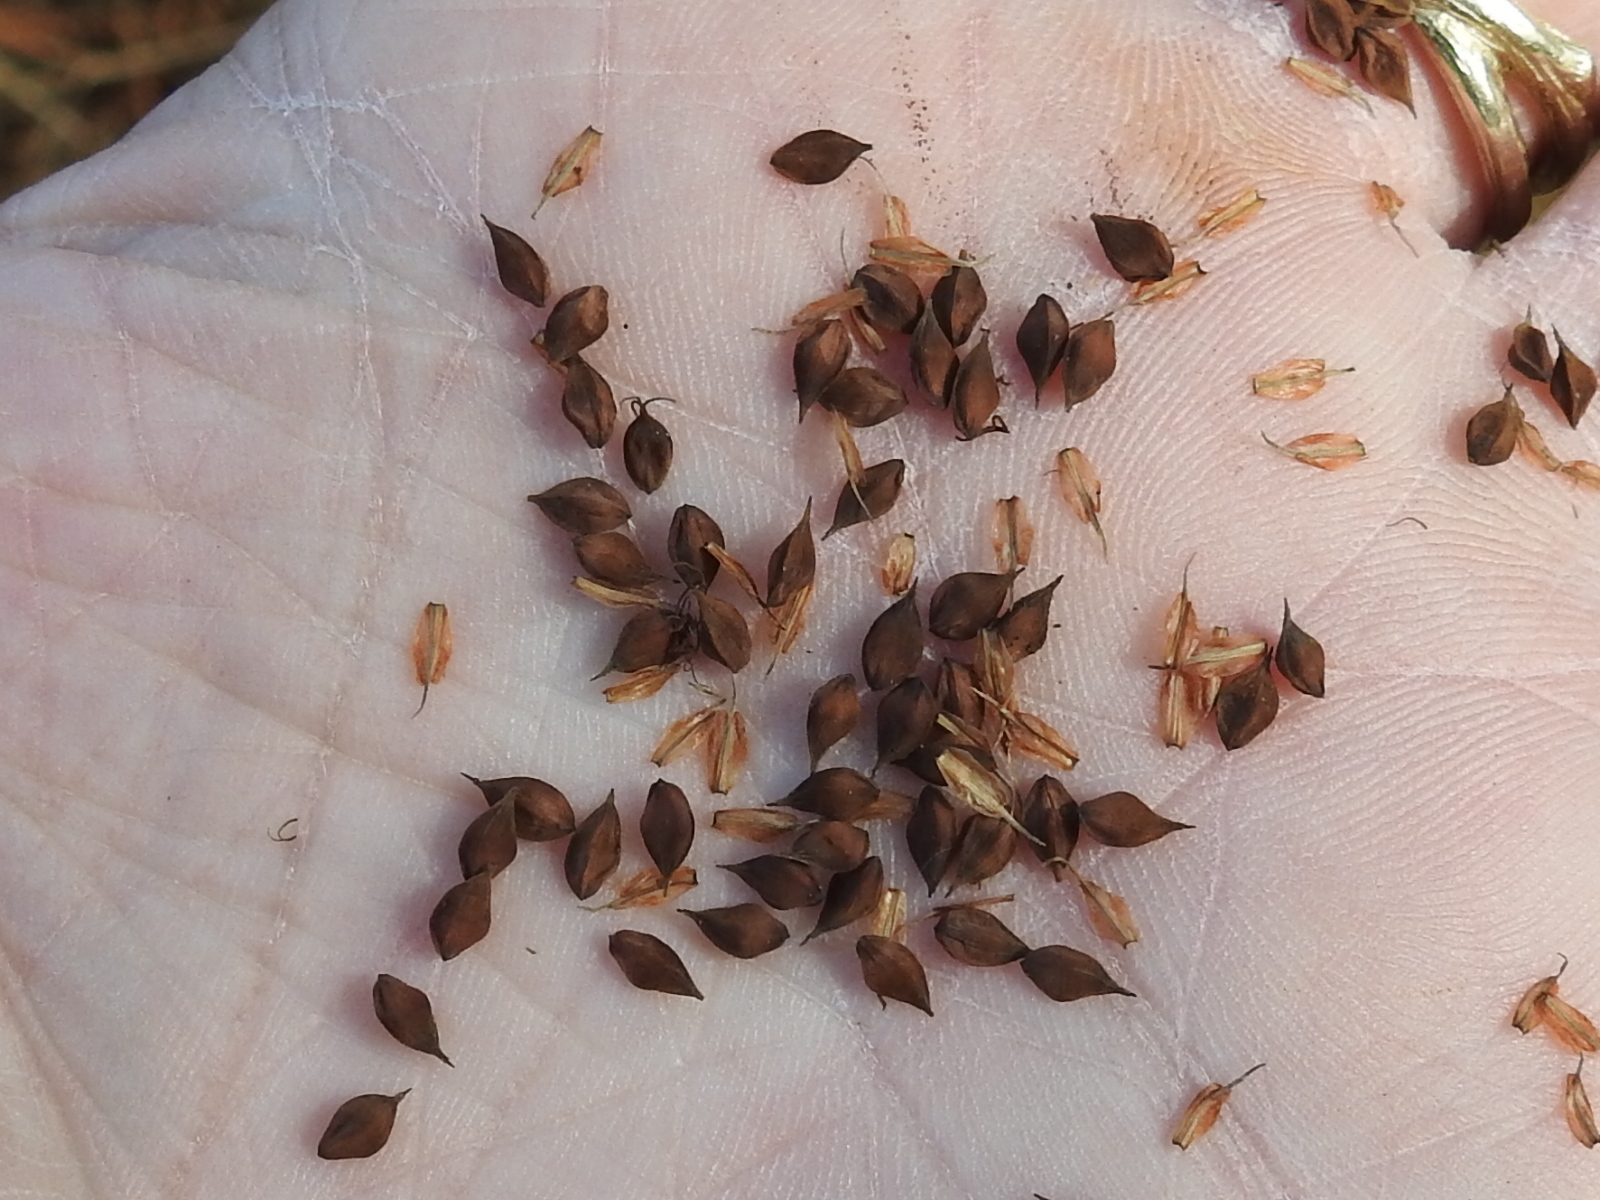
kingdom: Plantae
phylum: Tracheophyta
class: Liliopsida
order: Poales
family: Cyperaceae
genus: Carex
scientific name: Carex glaucescens
